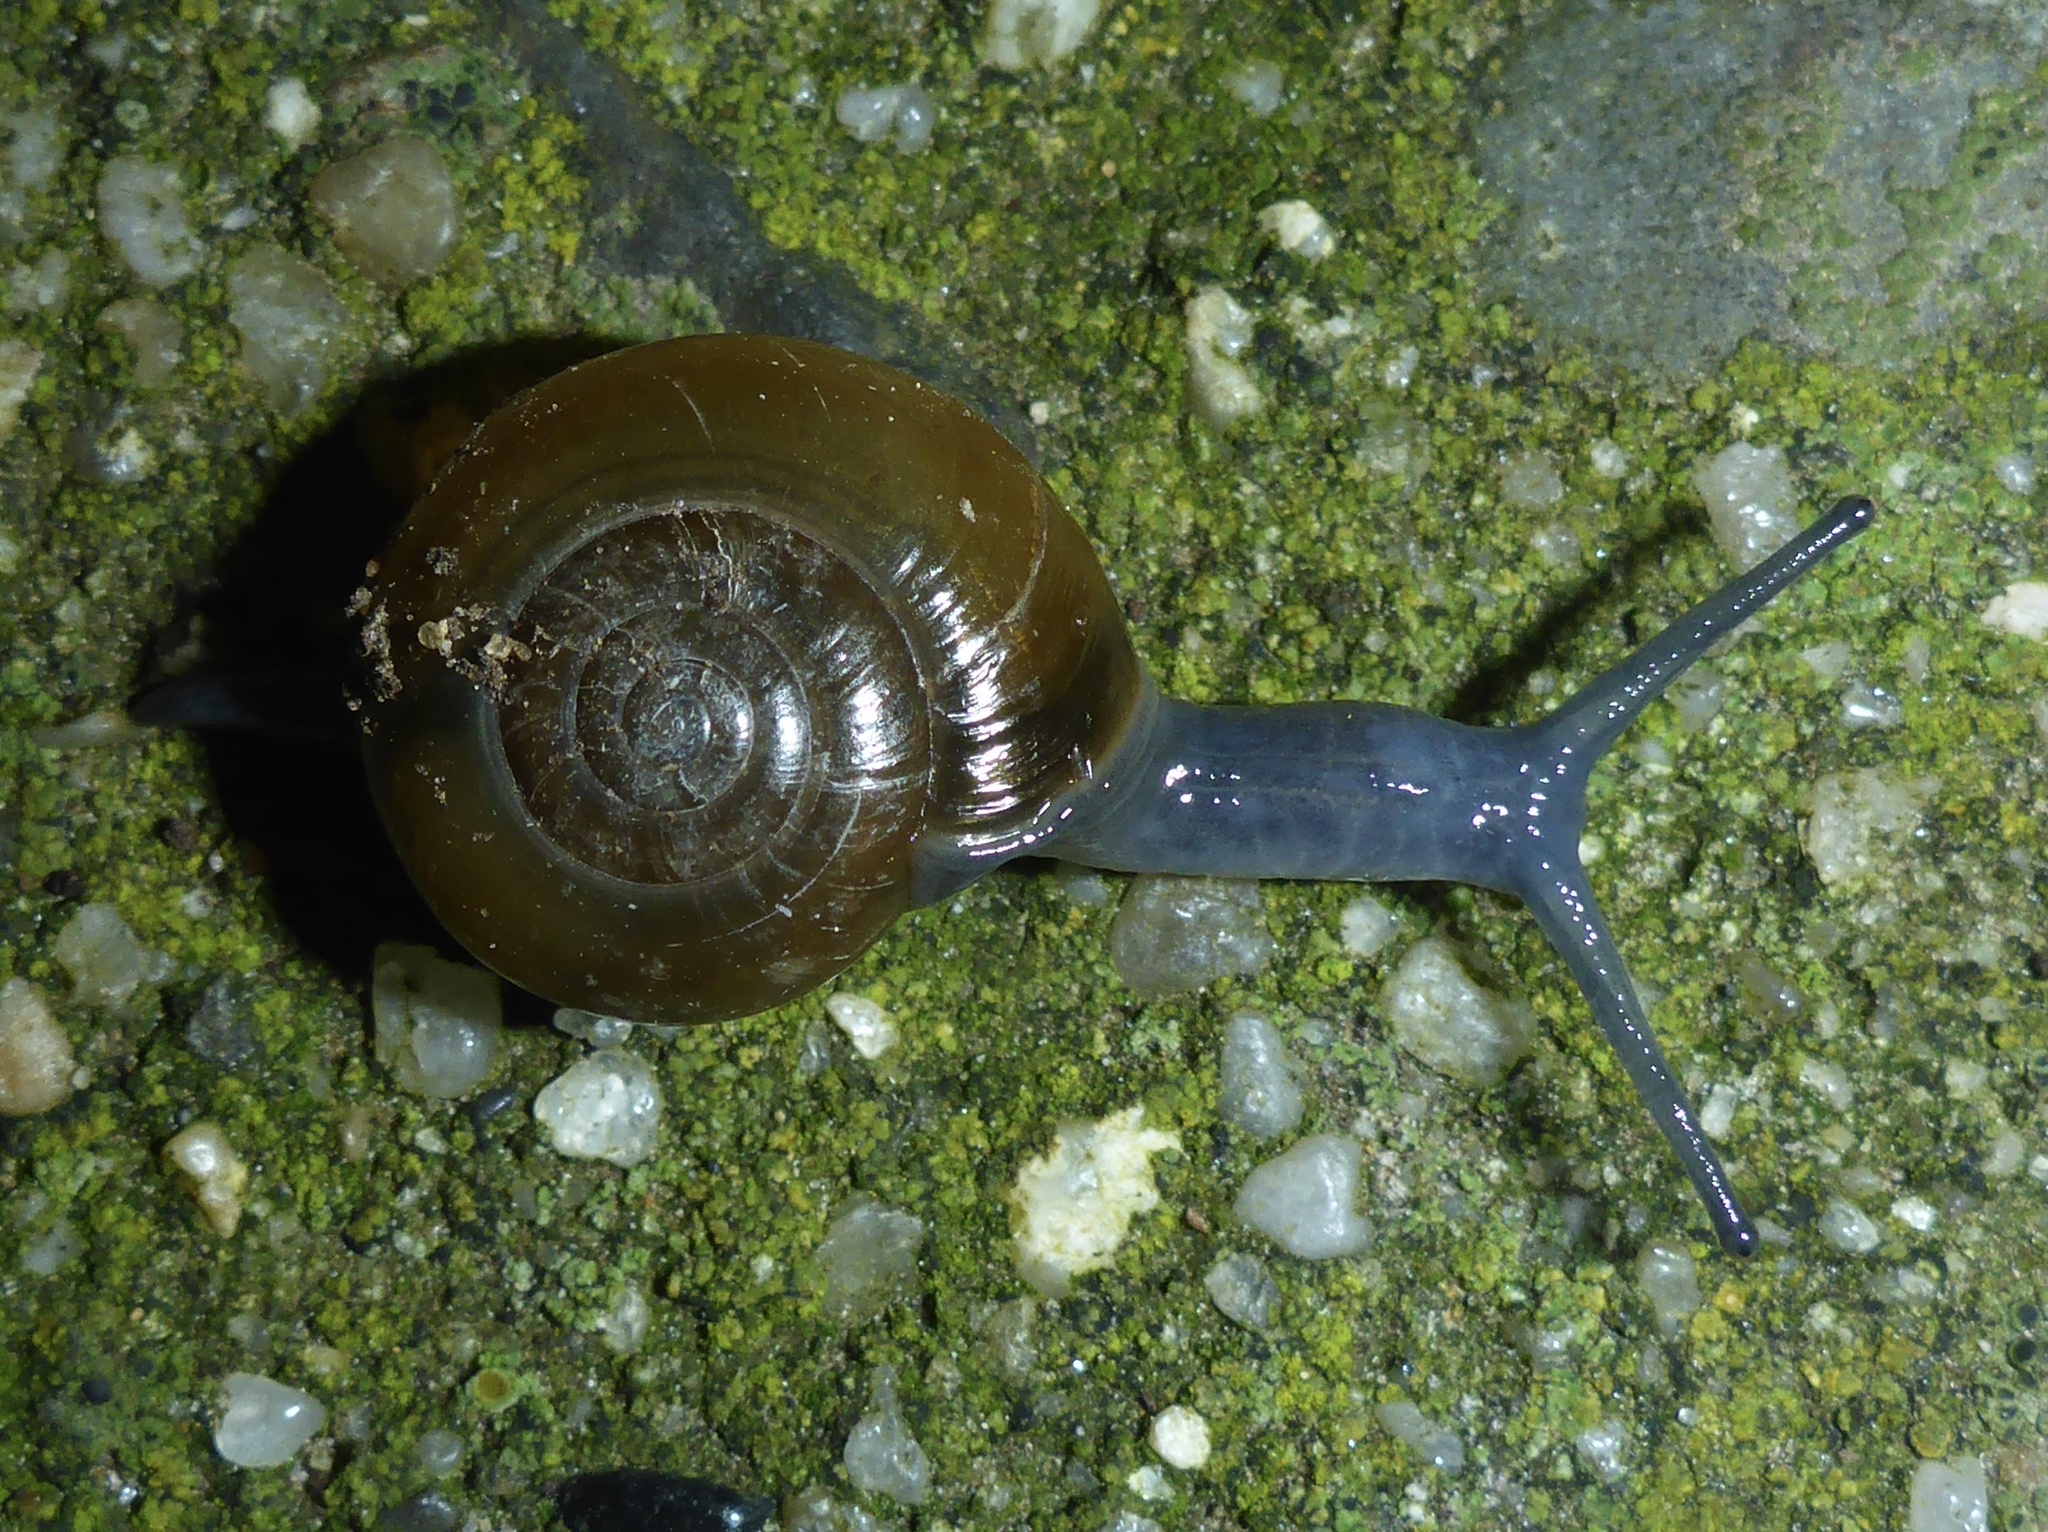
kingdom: Animalia
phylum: Mollusca
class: Gastropoda
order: Stylommatophora
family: Oxychilidae
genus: Oxychilus
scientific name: Oxychilus draparnaudi
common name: Draparnaud's glass snail
